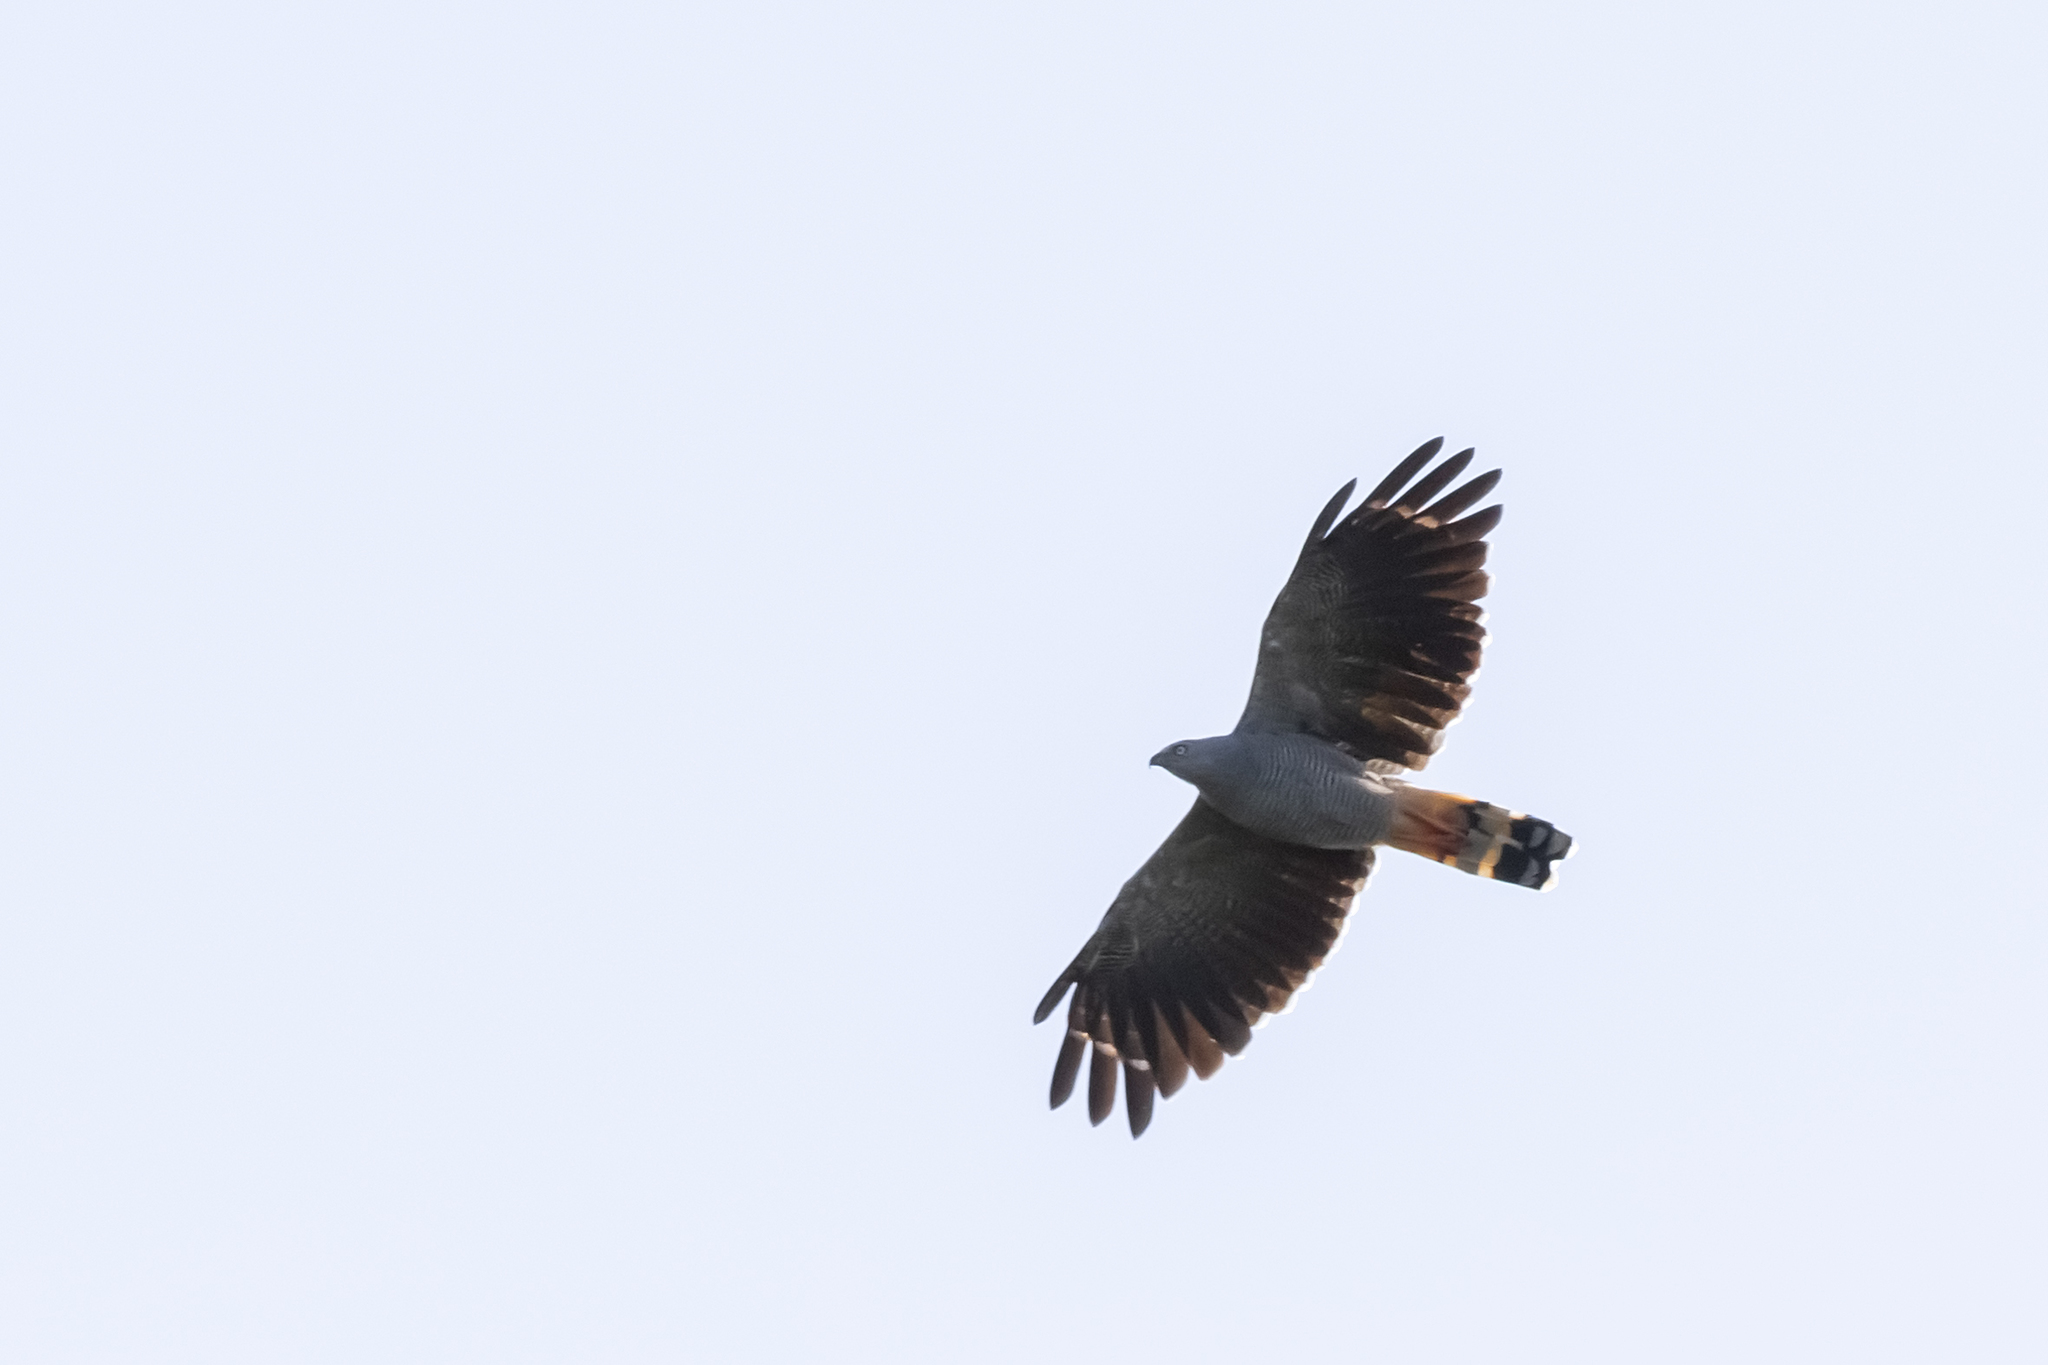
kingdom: Animalia
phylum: Chordata
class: Aves
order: Accipitriformes
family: Accipitridae
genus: Geranospiza
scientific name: Geranospiza caerulescens
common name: Crane hawk
